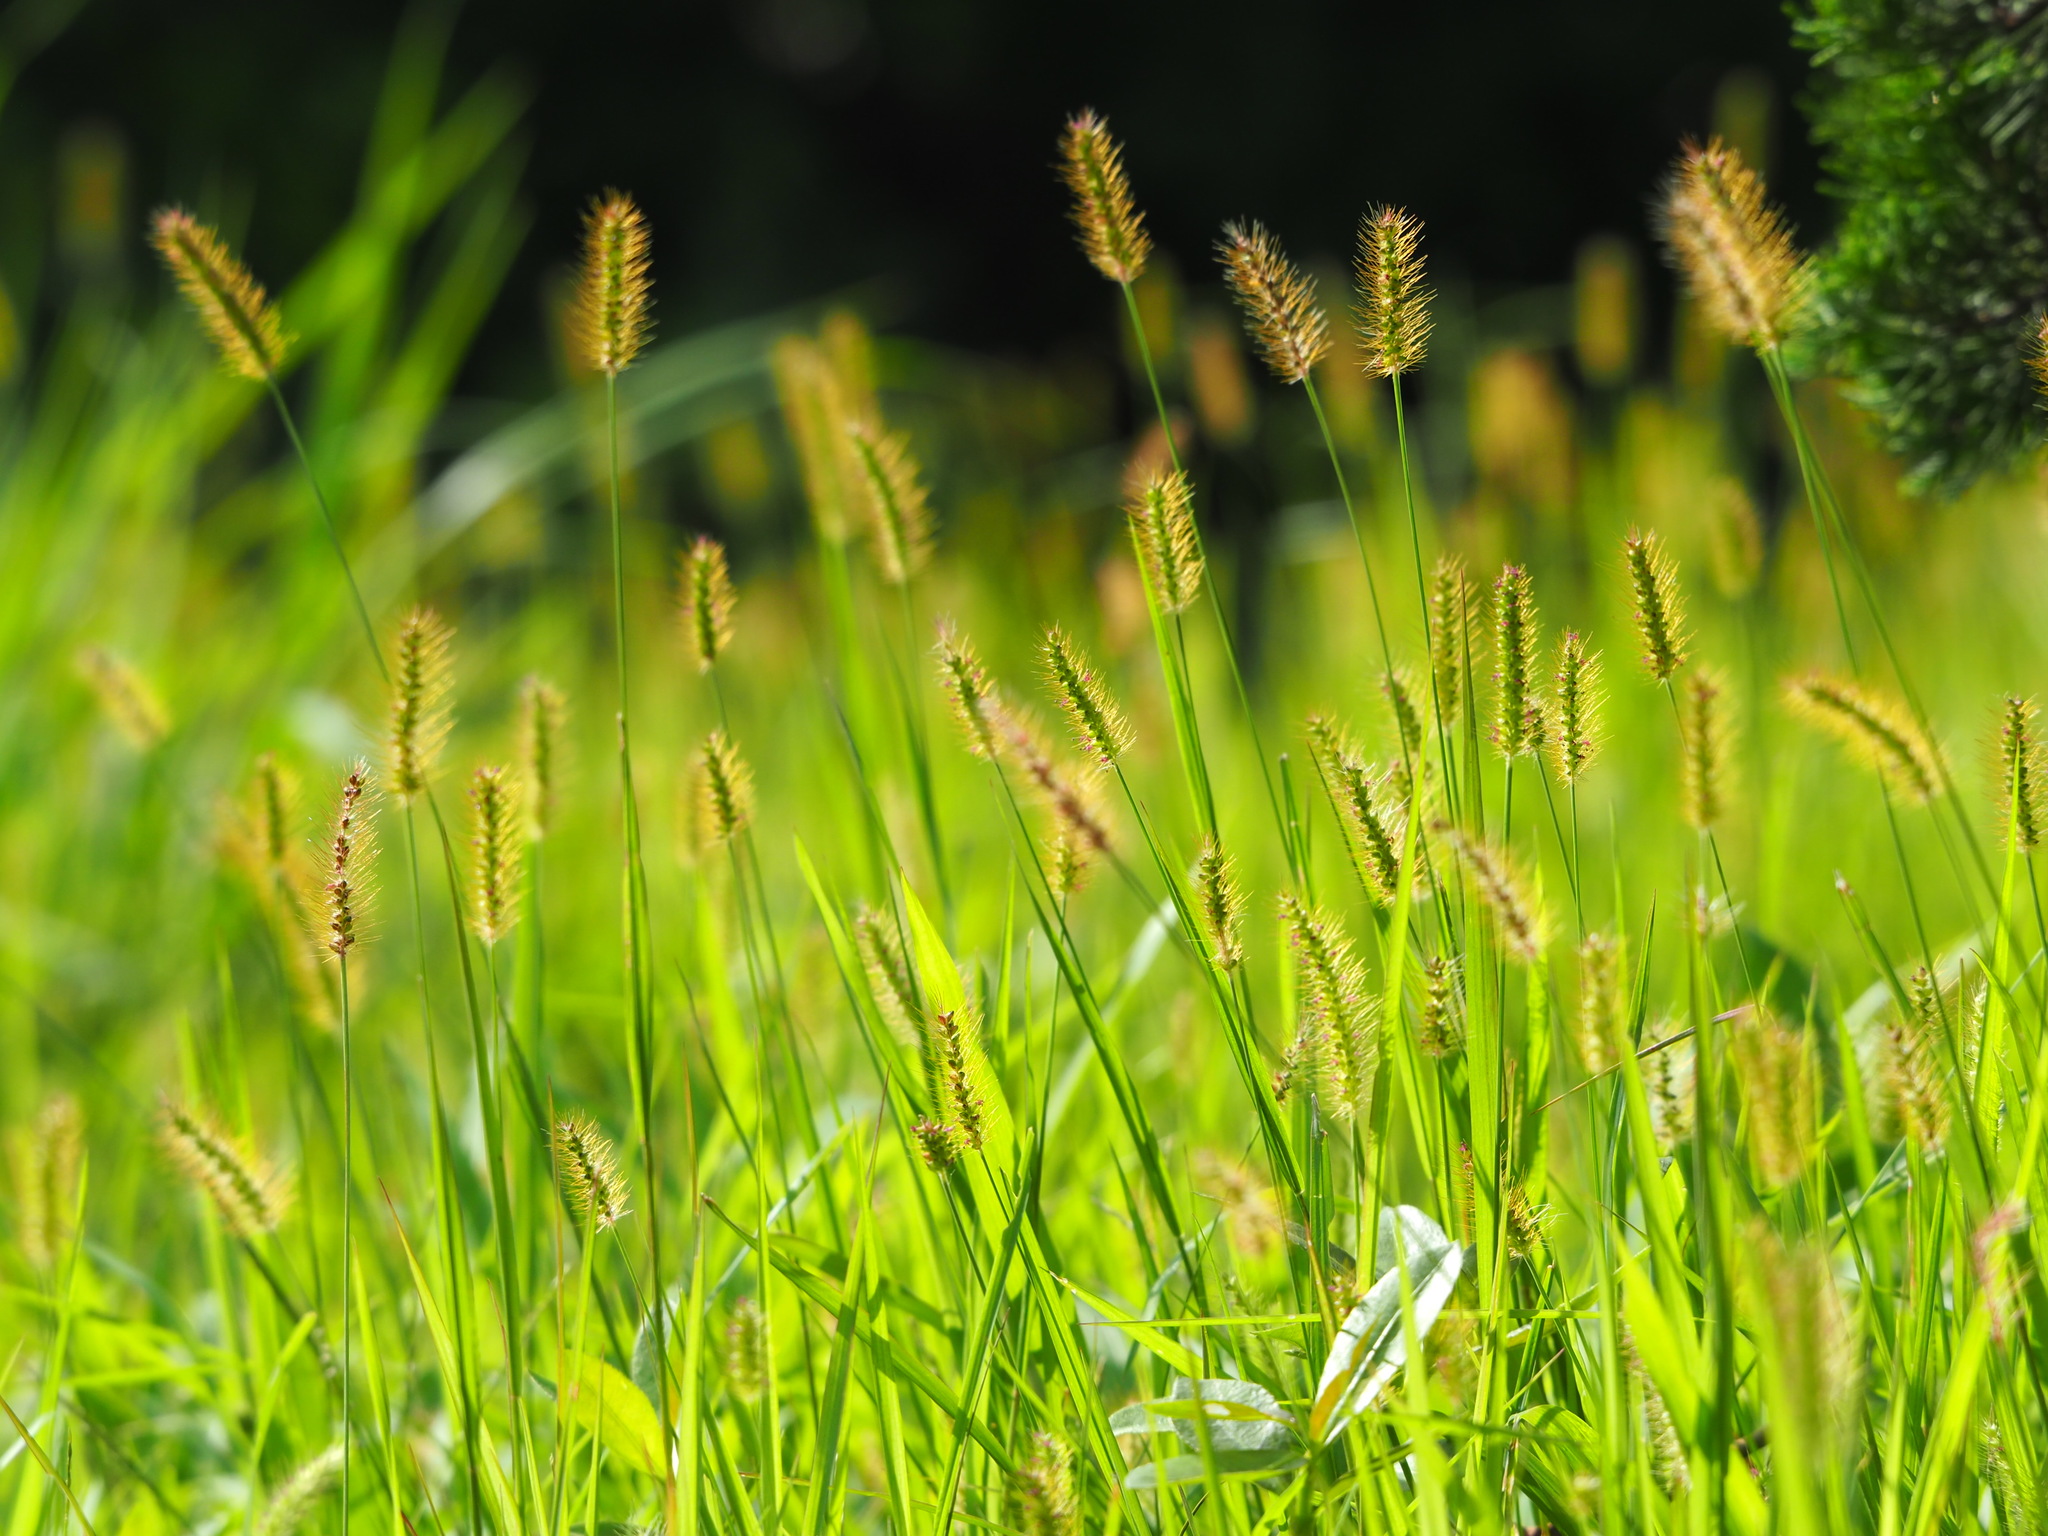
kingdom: Plantae
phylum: Tracheophyta
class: Liliopsida
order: Poales
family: Poaceae
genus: Setaria
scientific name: Setaria parviflora
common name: Knotroot bristle-grass
